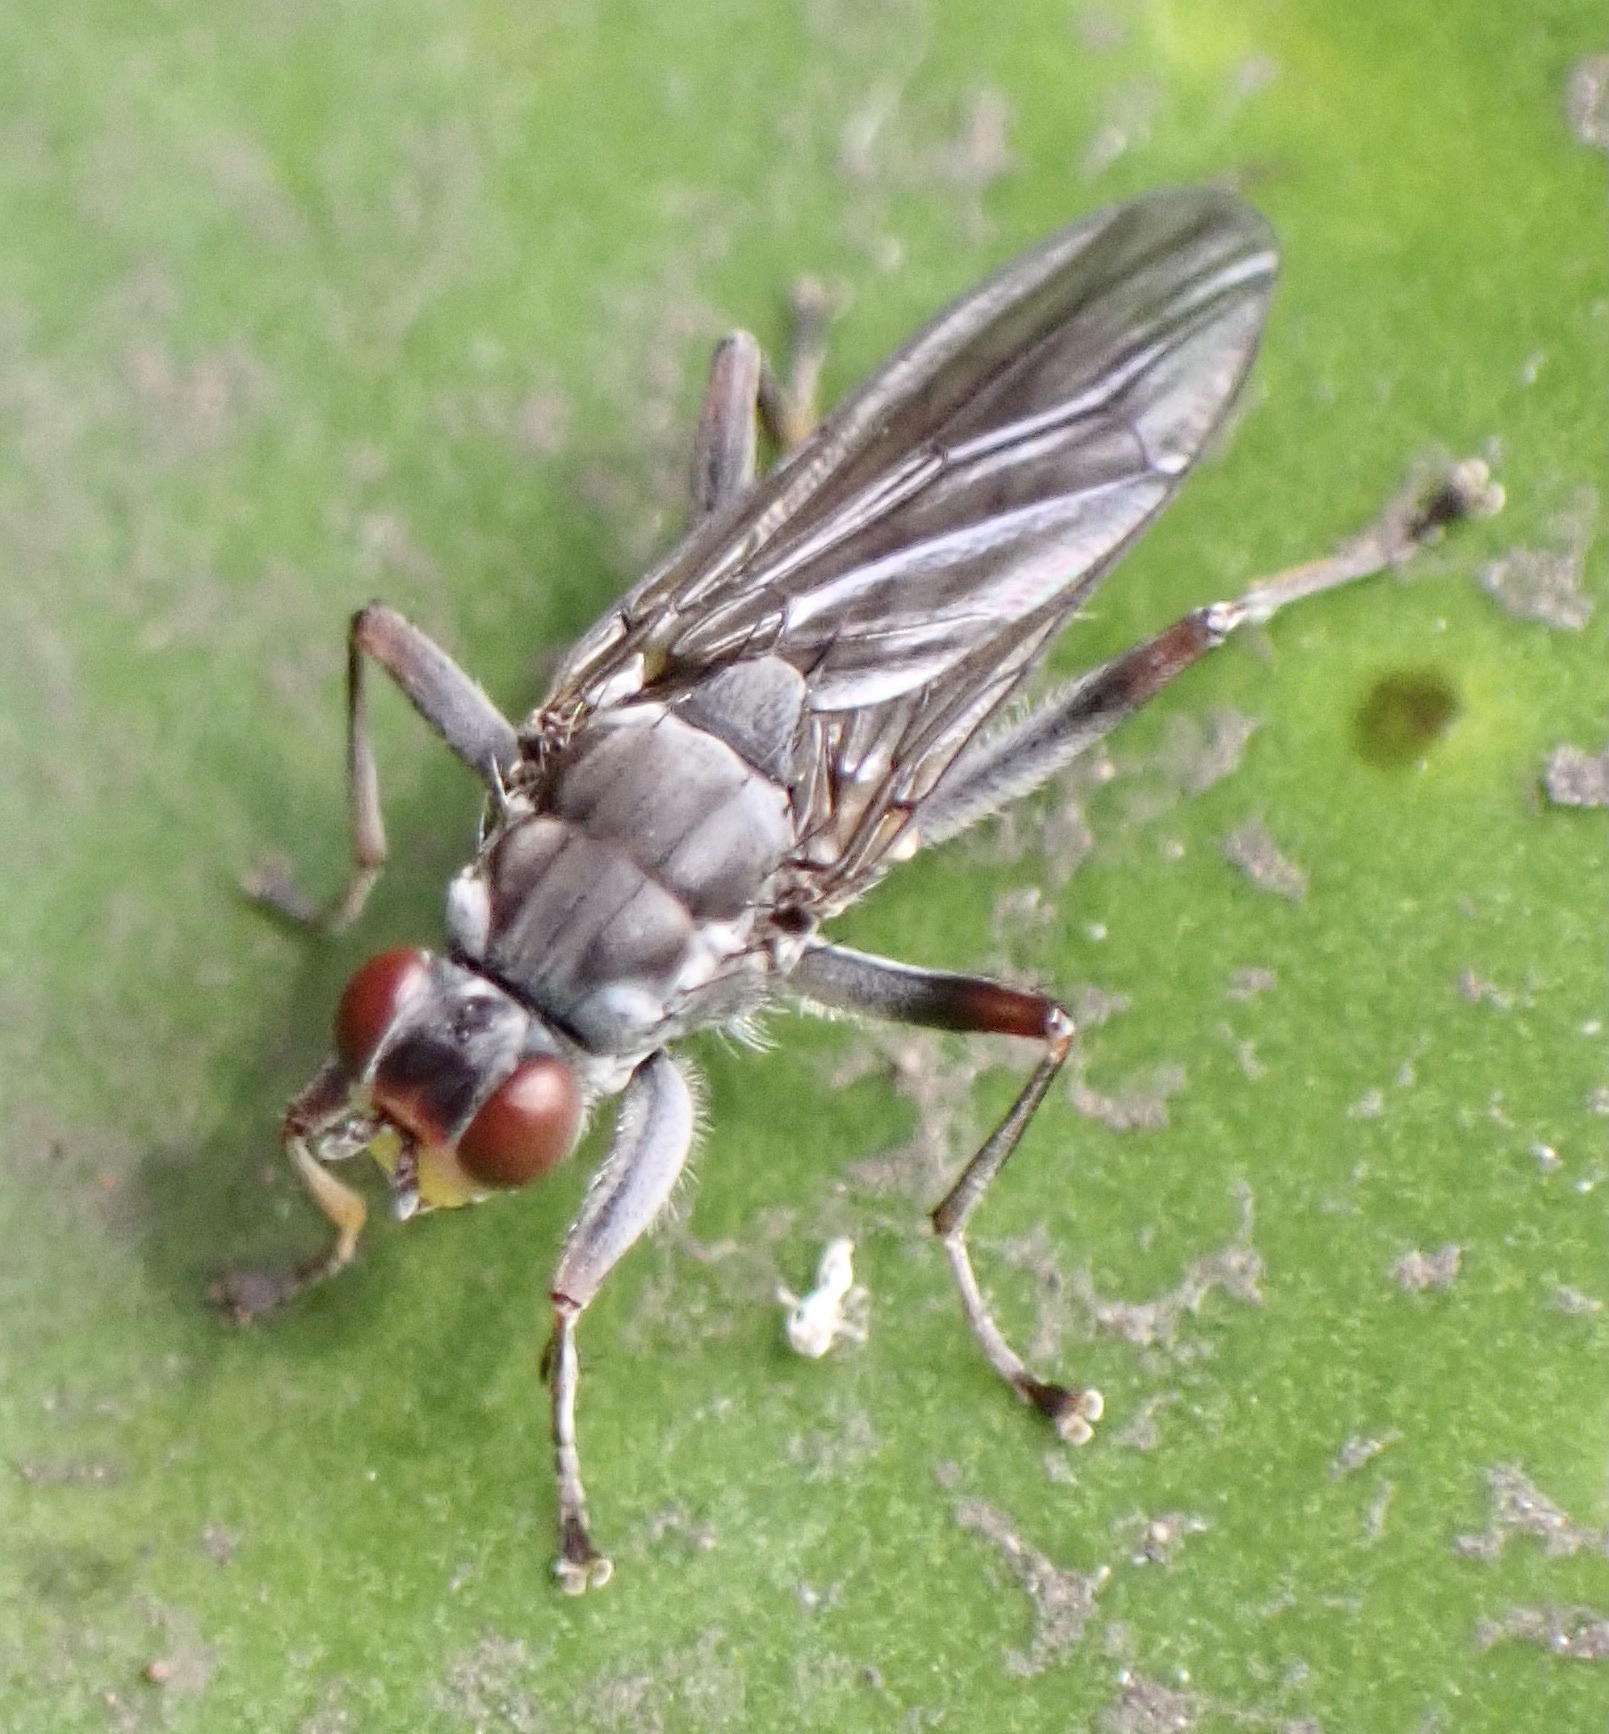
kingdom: Animalia
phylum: Arthropoda
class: Insecta
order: Diptera
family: Scathophagidae
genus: Hydromyza
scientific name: Hydromyza livens
